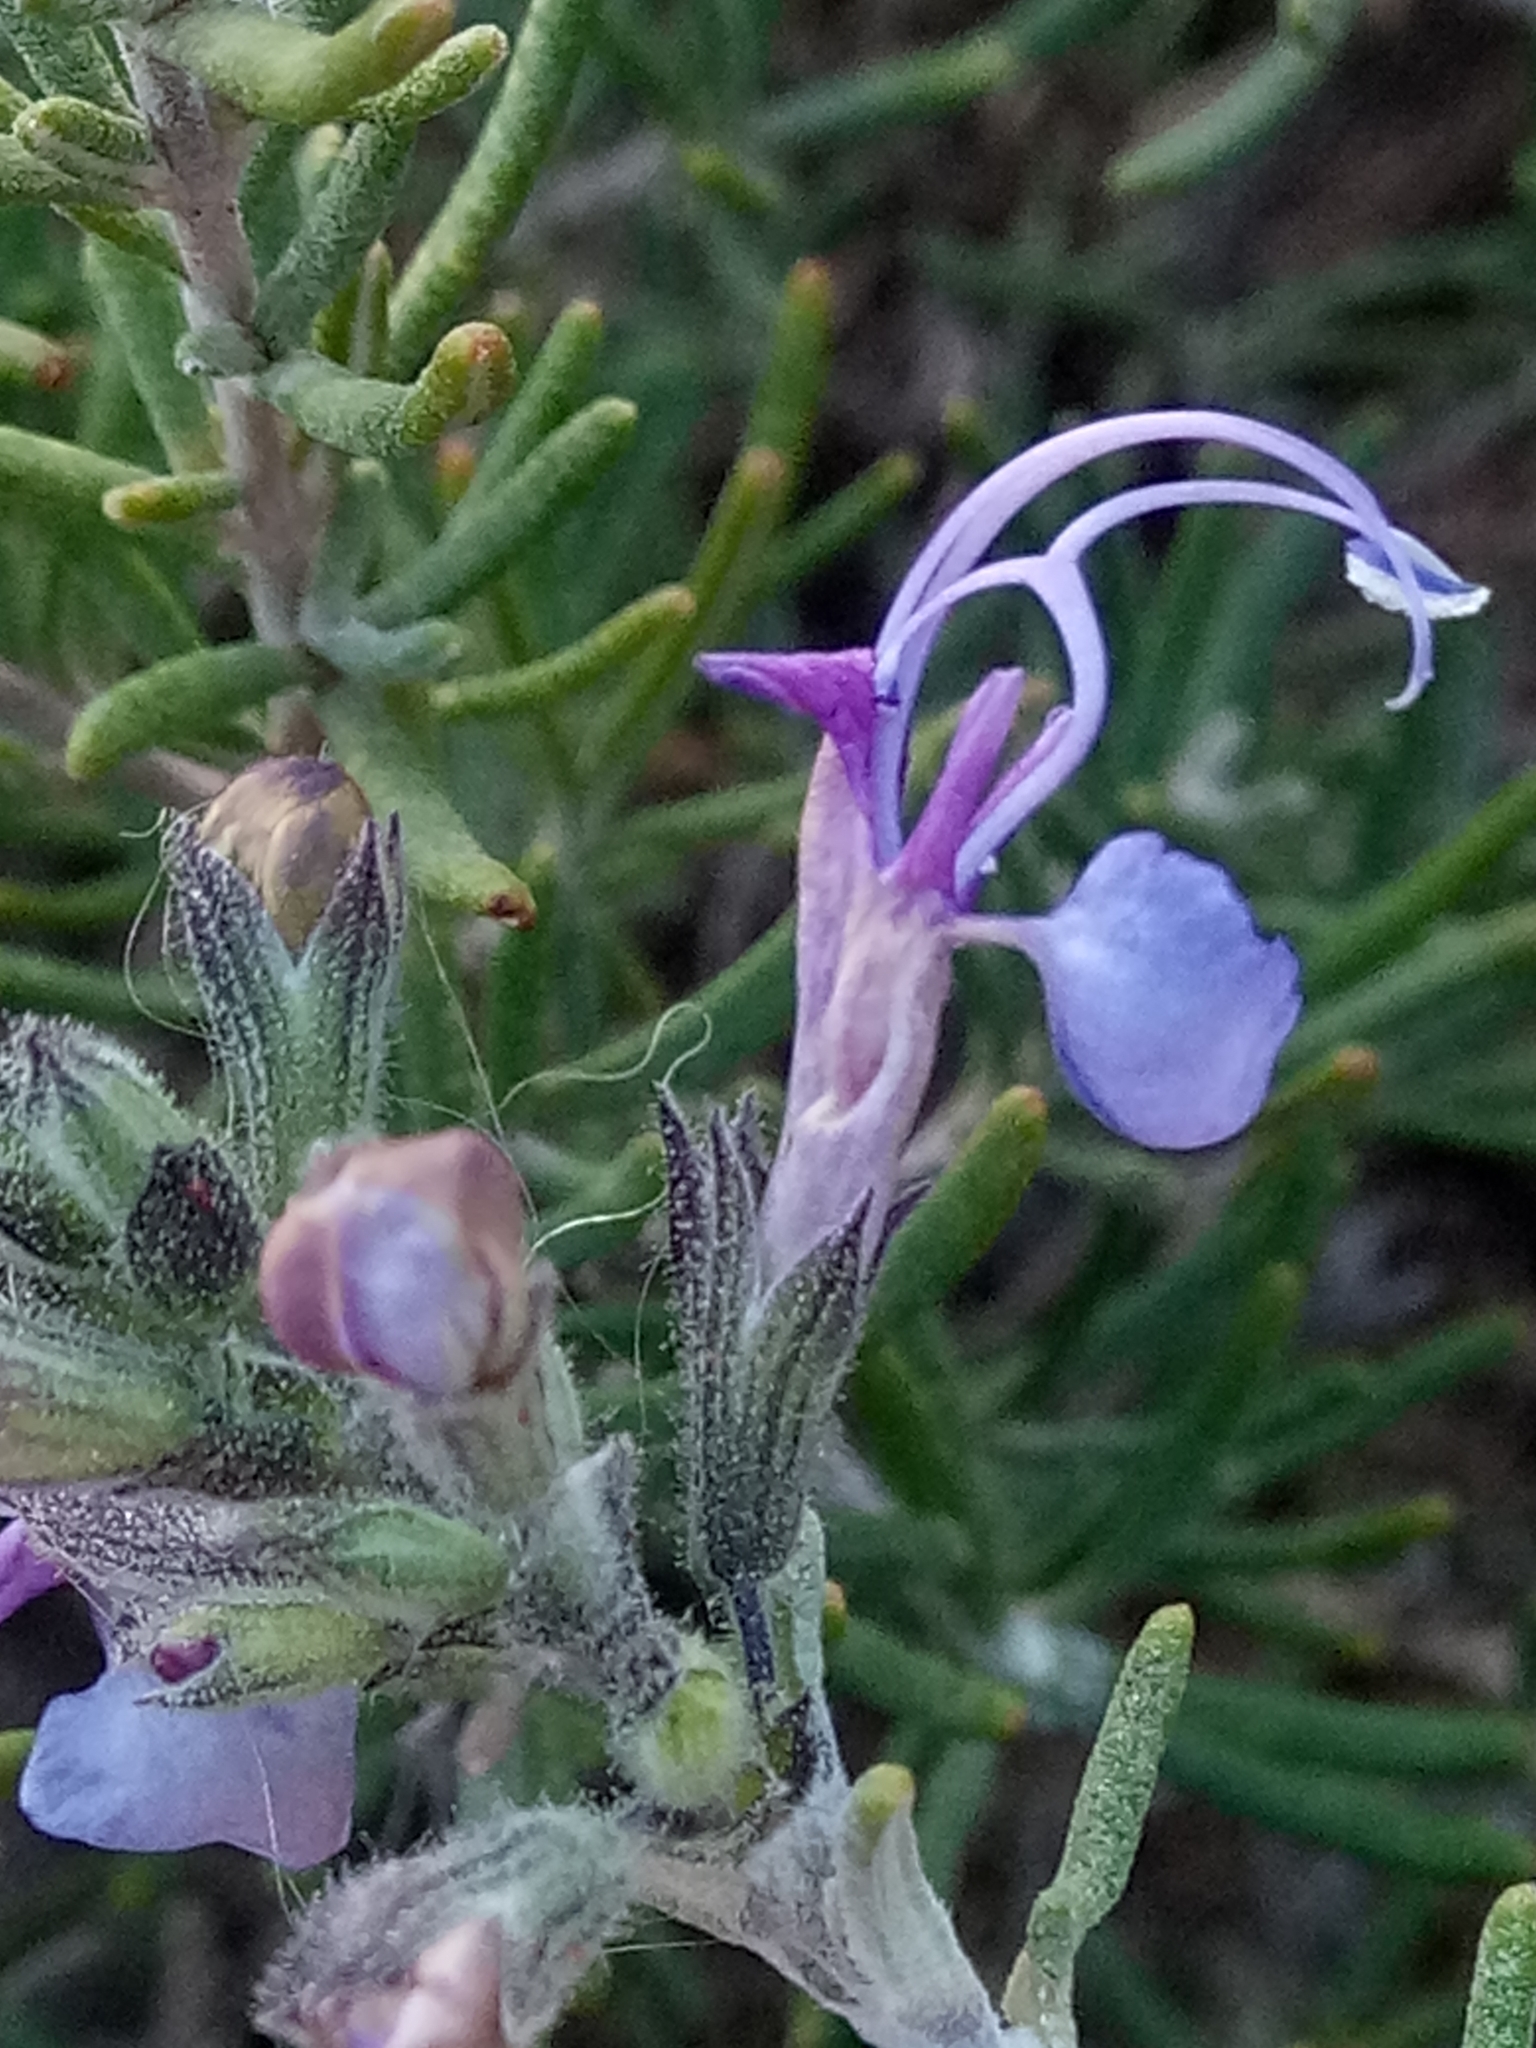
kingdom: Plantae
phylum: Tracheophyta
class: Magnoliopsida
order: Lamiales
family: Lamiaceae
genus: Salvia
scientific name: Salvia jordanii
